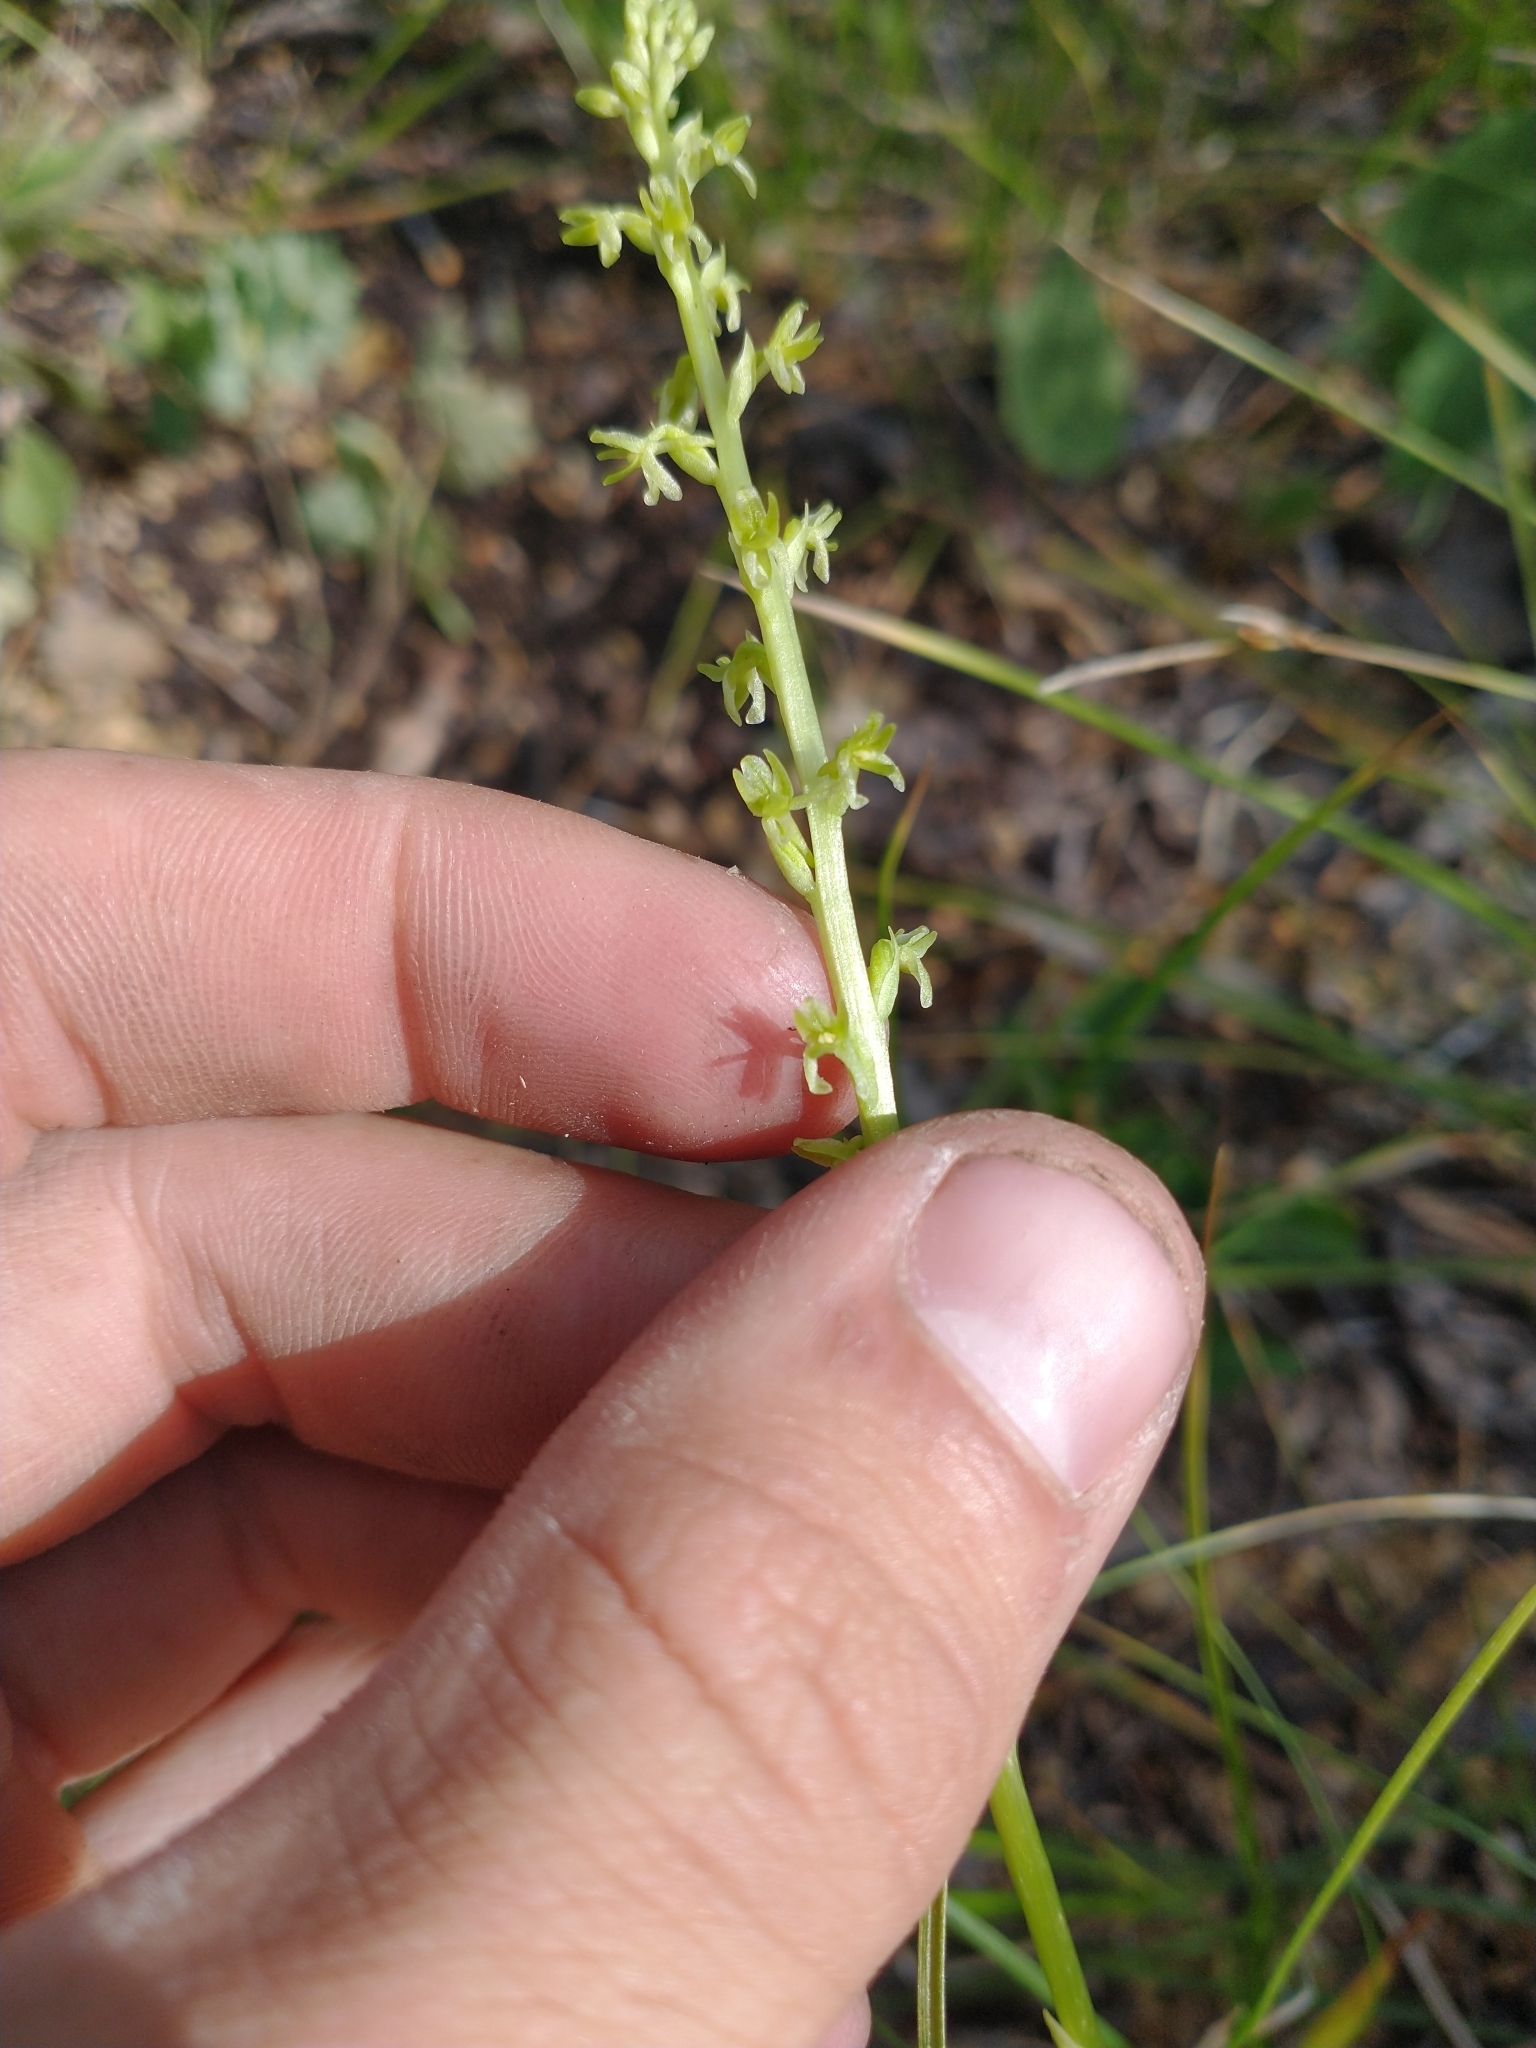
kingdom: Plantae
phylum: Tracheophyta
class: Liliopsida
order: Asparagales
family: Orchidaceae
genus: Platanthera
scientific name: Platanthera unalascensis
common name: Alaska bog orchid
